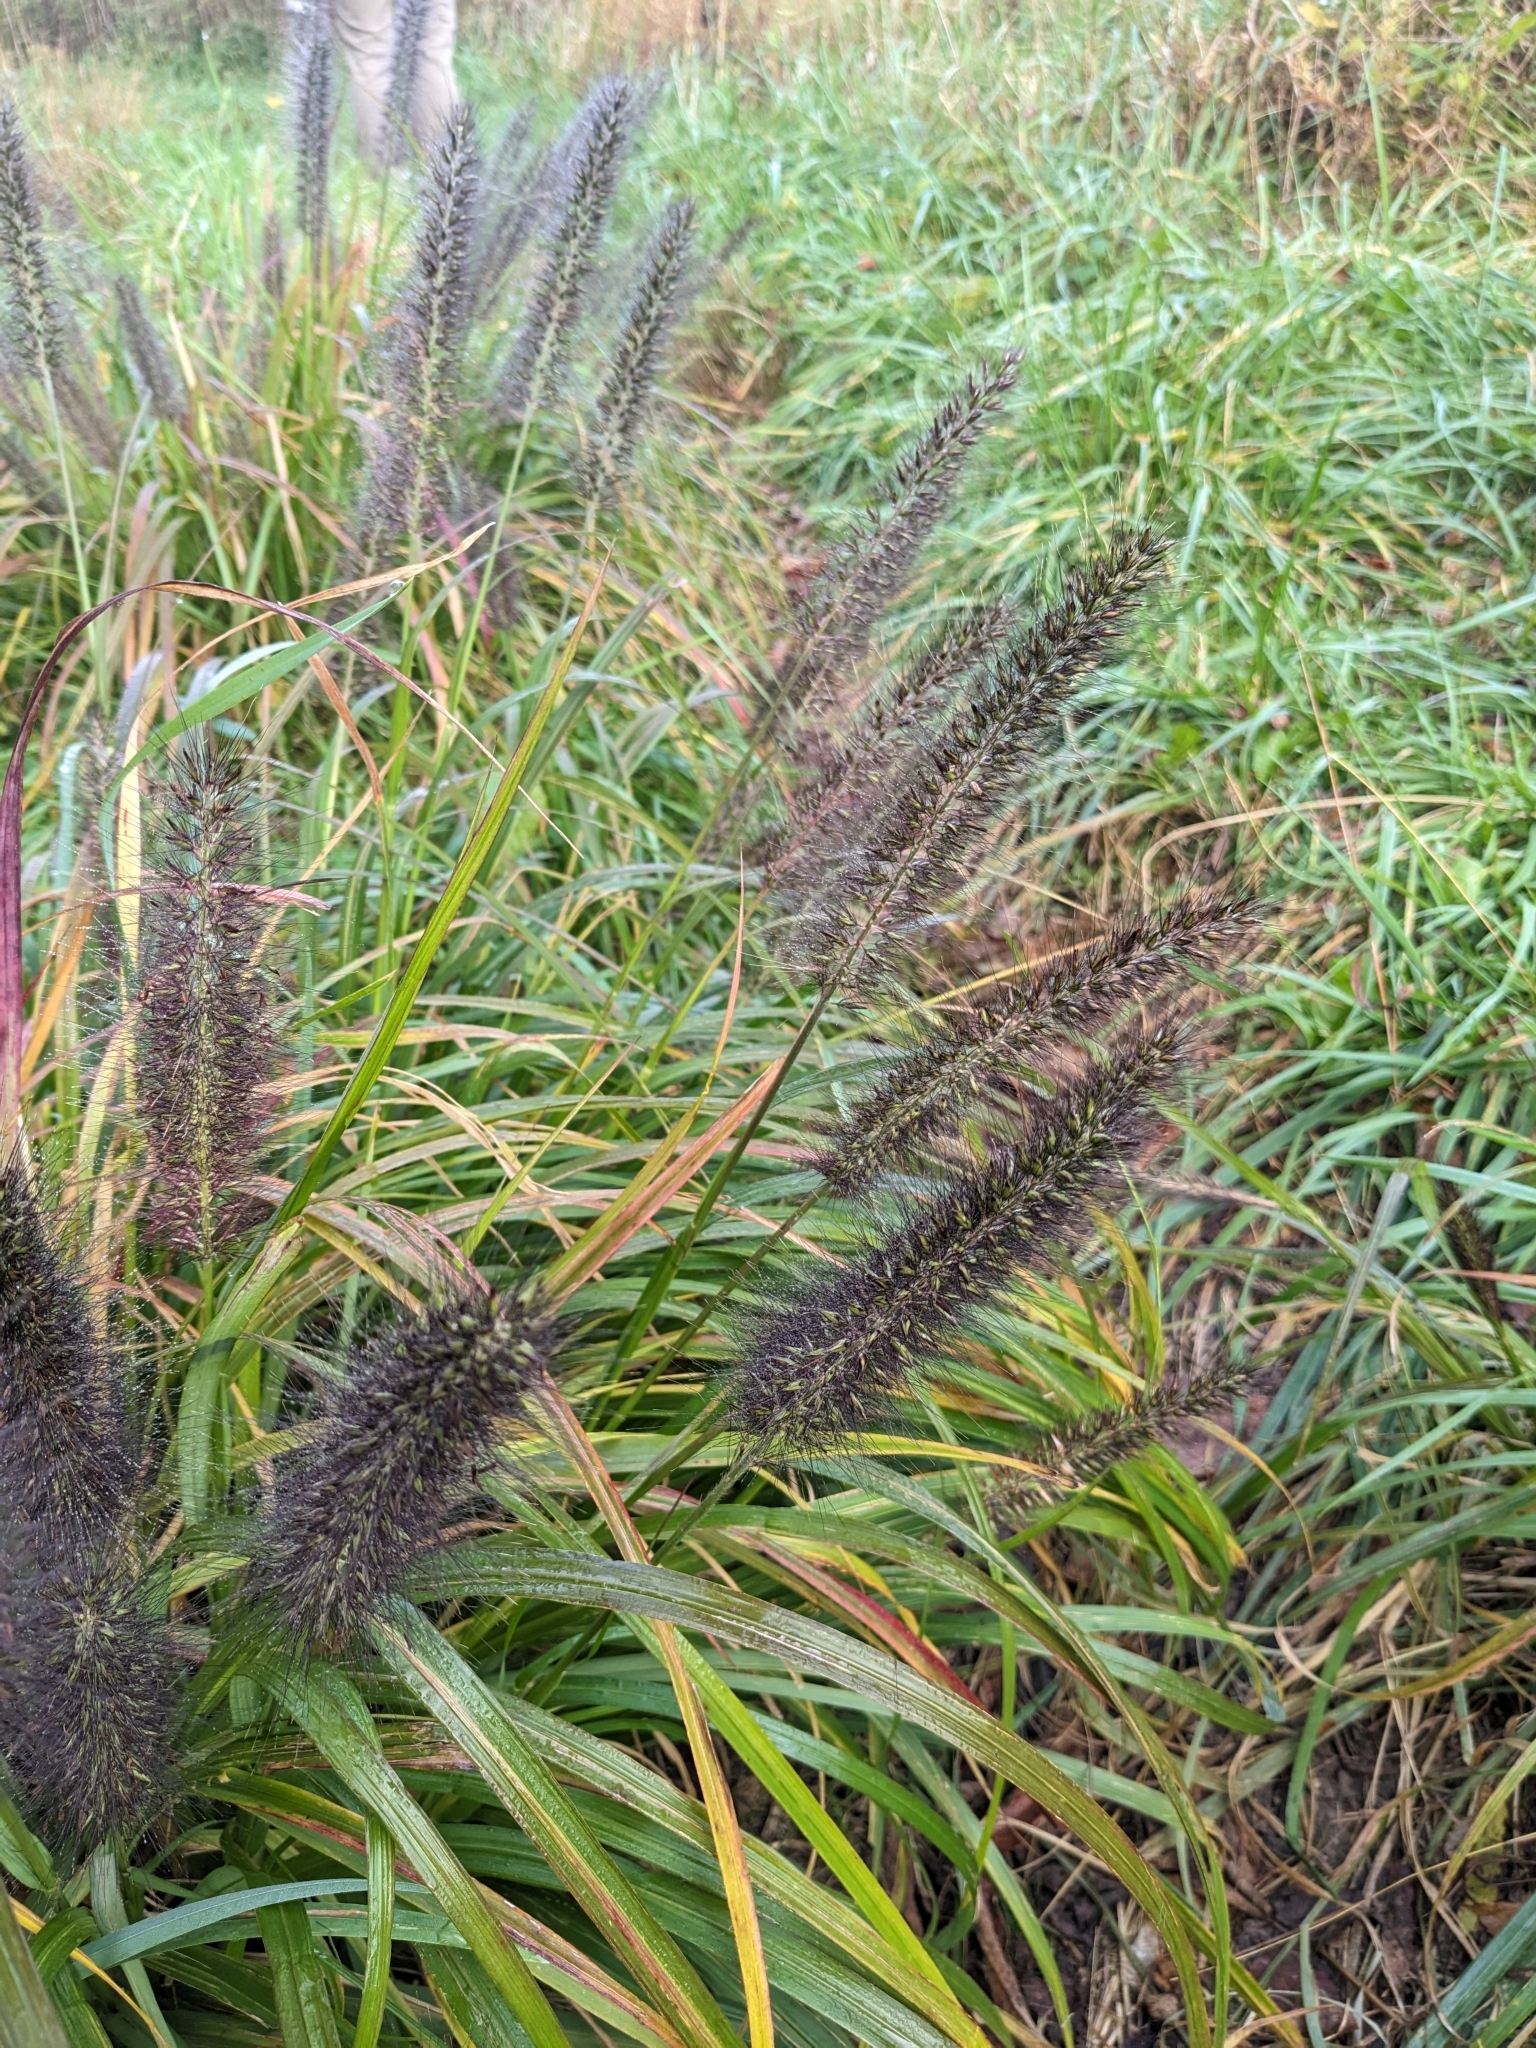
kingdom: Plantae
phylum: Tracheophyta
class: Liliopsida
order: Poales
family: Poaceae
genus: Cenchrus
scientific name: Cenchrus alopecuroides
